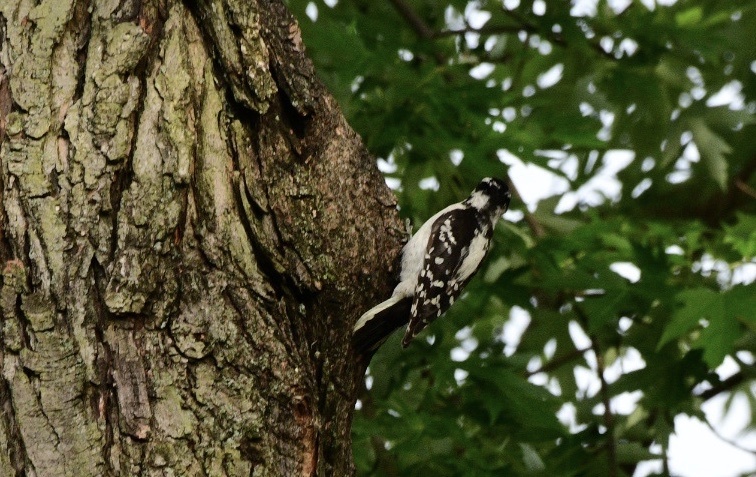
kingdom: Animalia
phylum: Chordata
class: Aves
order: Piciformes
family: Picidae
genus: Dryobates
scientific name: Dryobates pubescens
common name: Downy woodpecker
